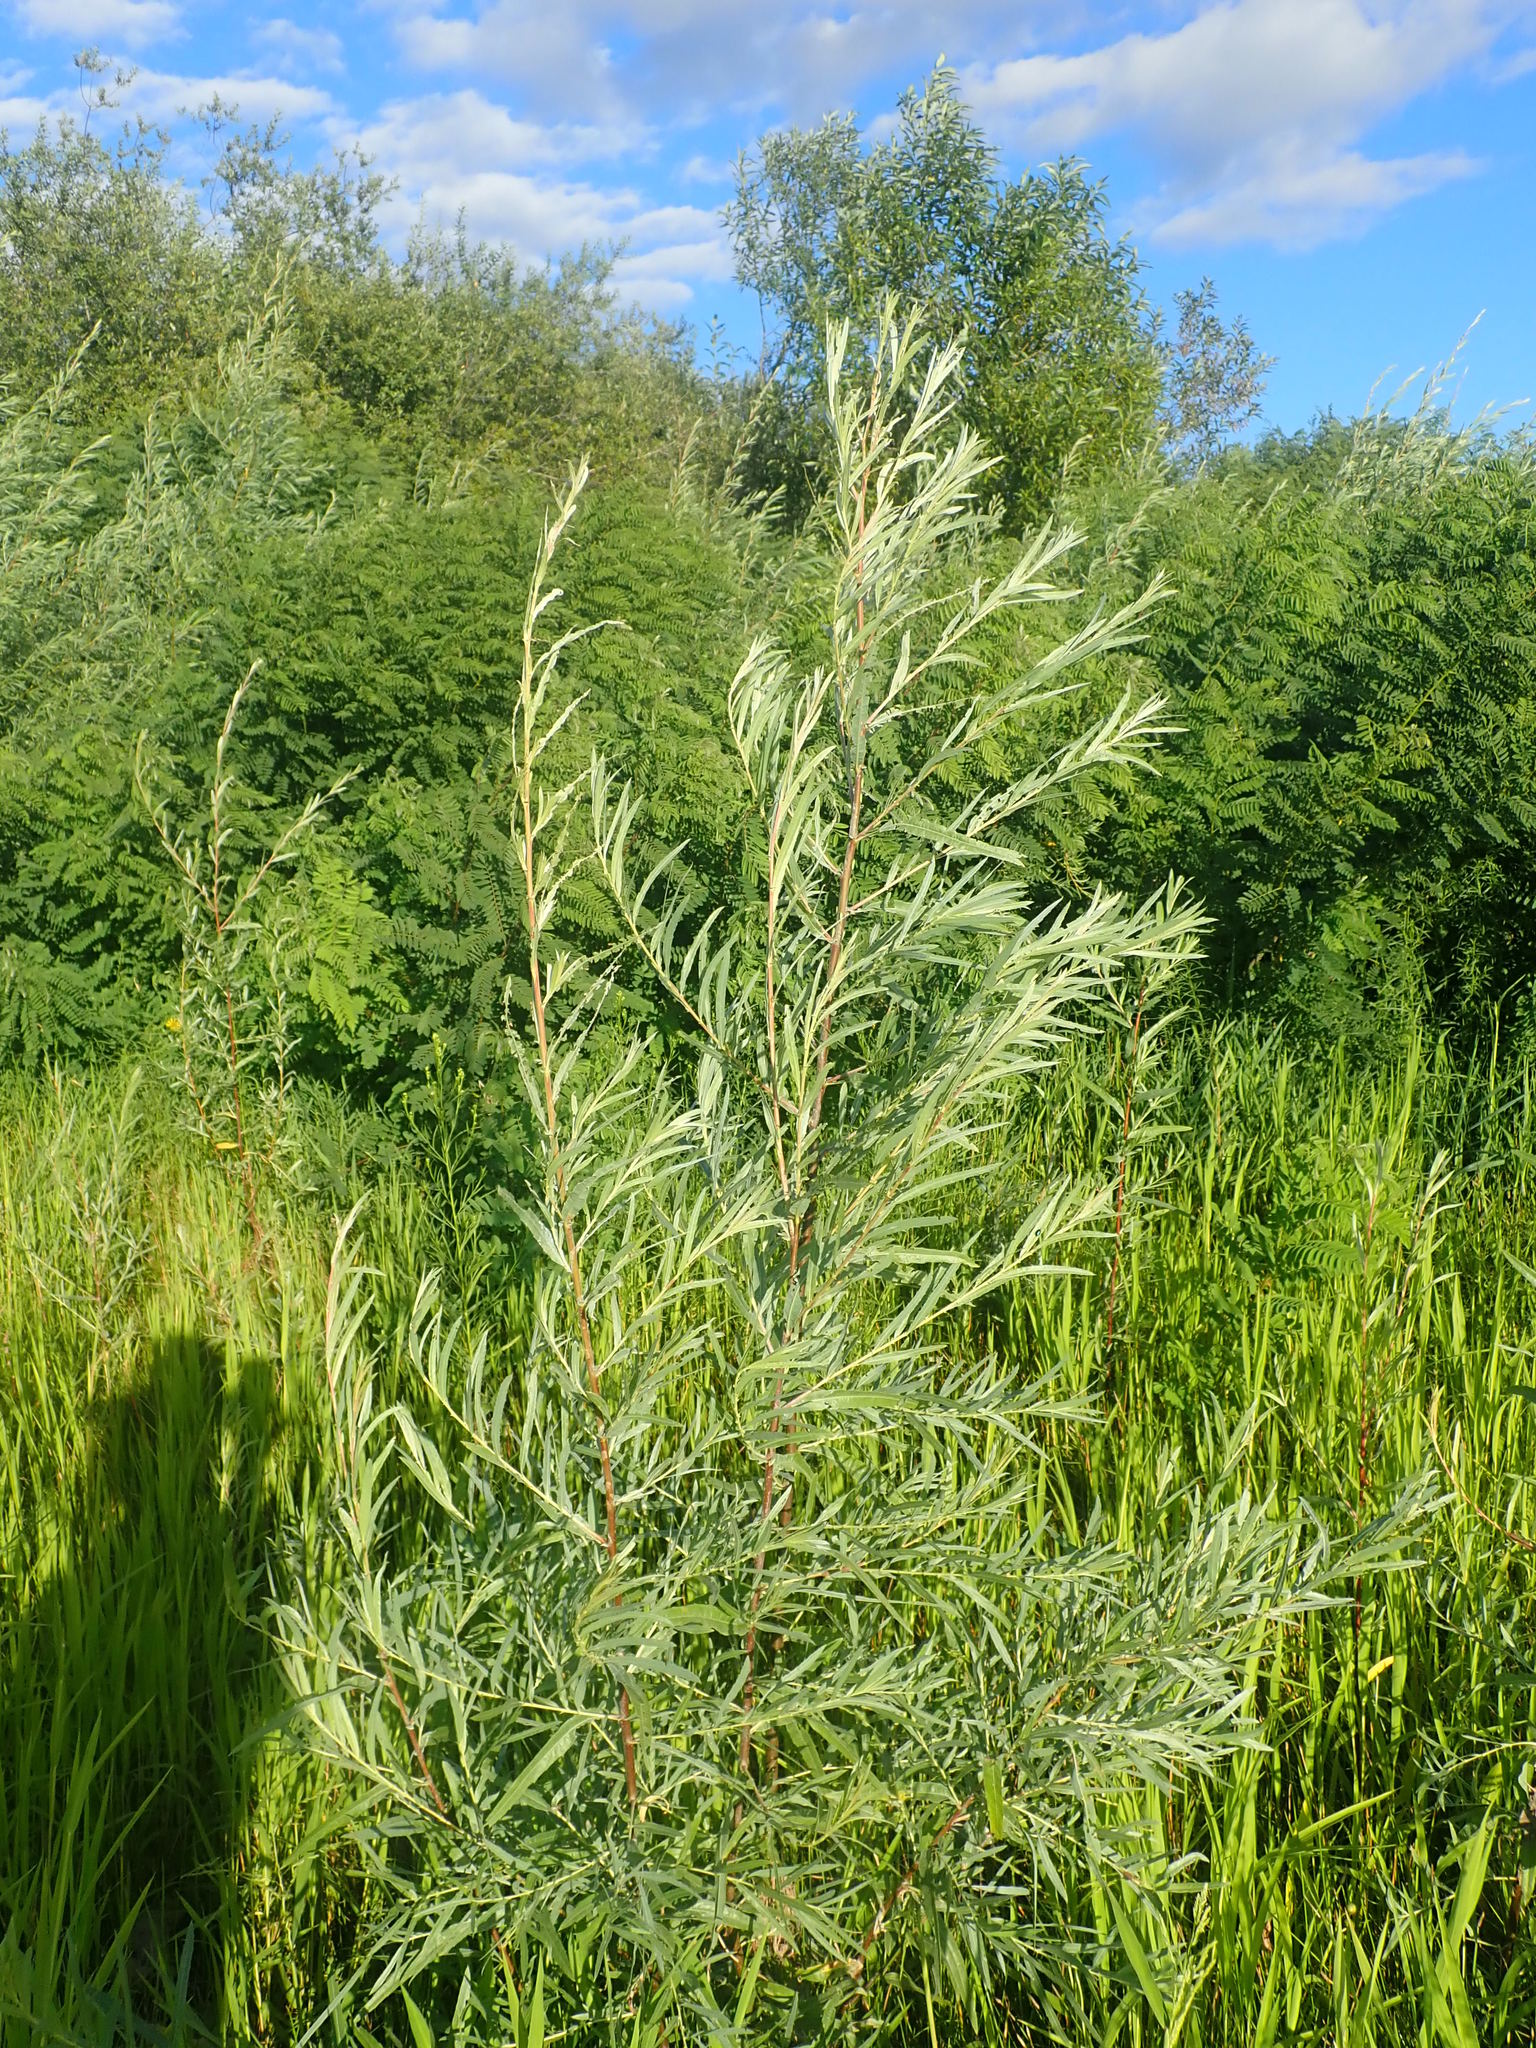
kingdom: Plantae
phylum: Tracheophyta
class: Magnoliopsida
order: Malpighiales
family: Salicaceae
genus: Salix
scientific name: Salix exigua
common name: Coyote willow
